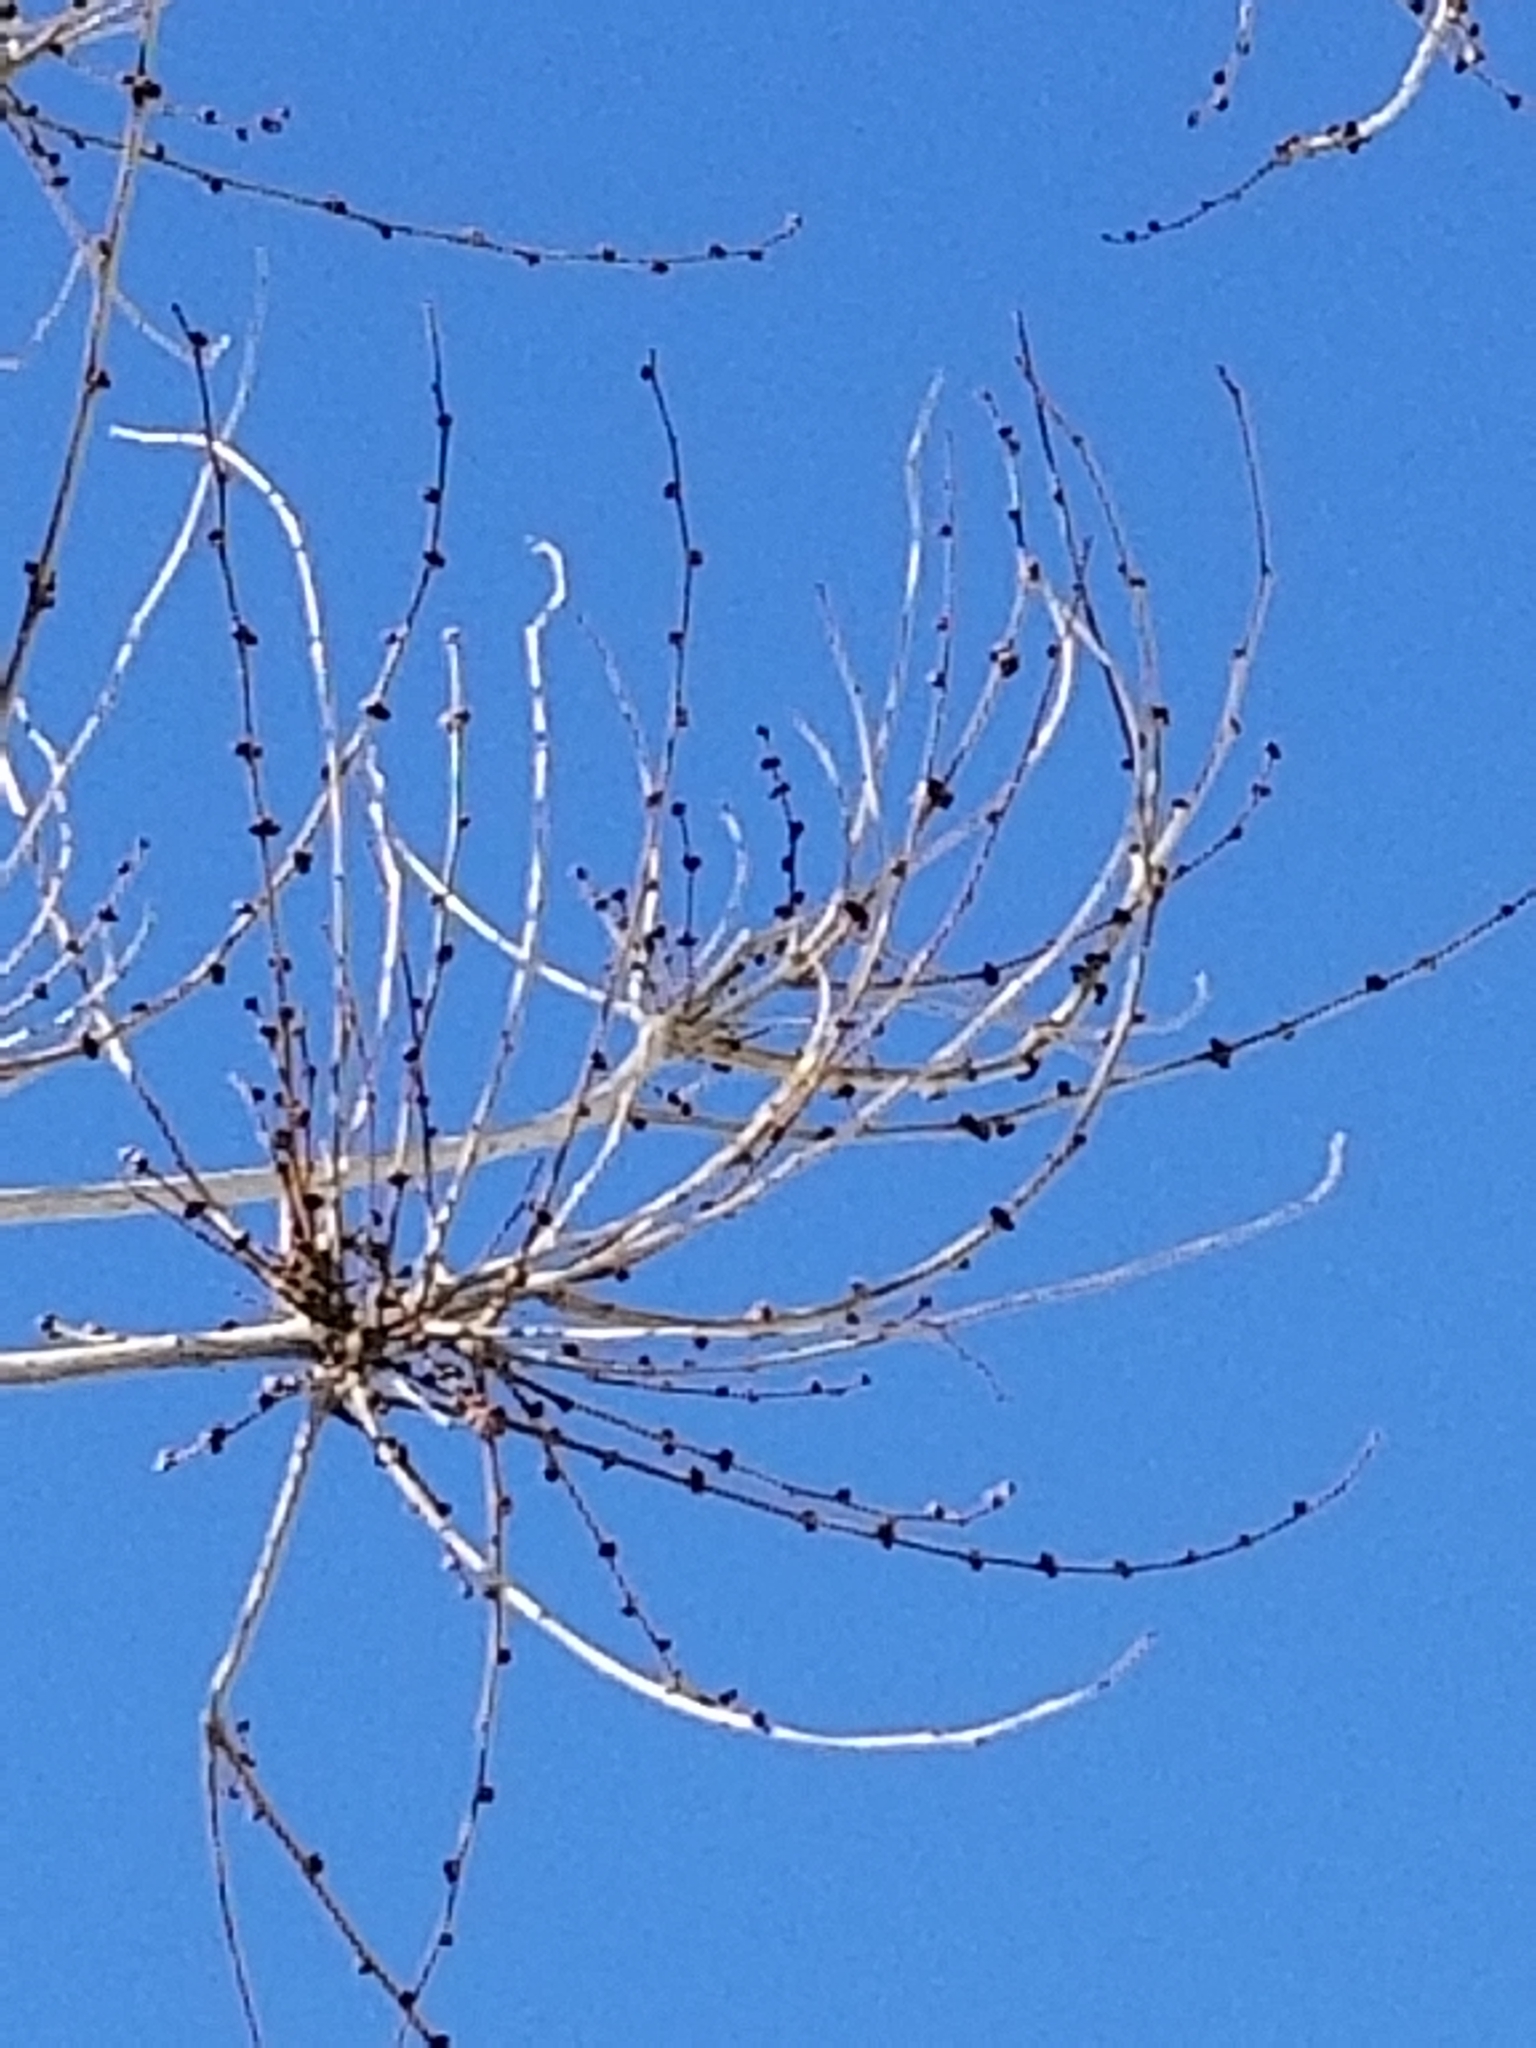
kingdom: Plantae
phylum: Tracheophyta
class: Magnoliopsida
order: Rosales
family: Ulmaceae
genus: Ulmus
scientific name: Ulmus pumila
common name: Siberian elm
